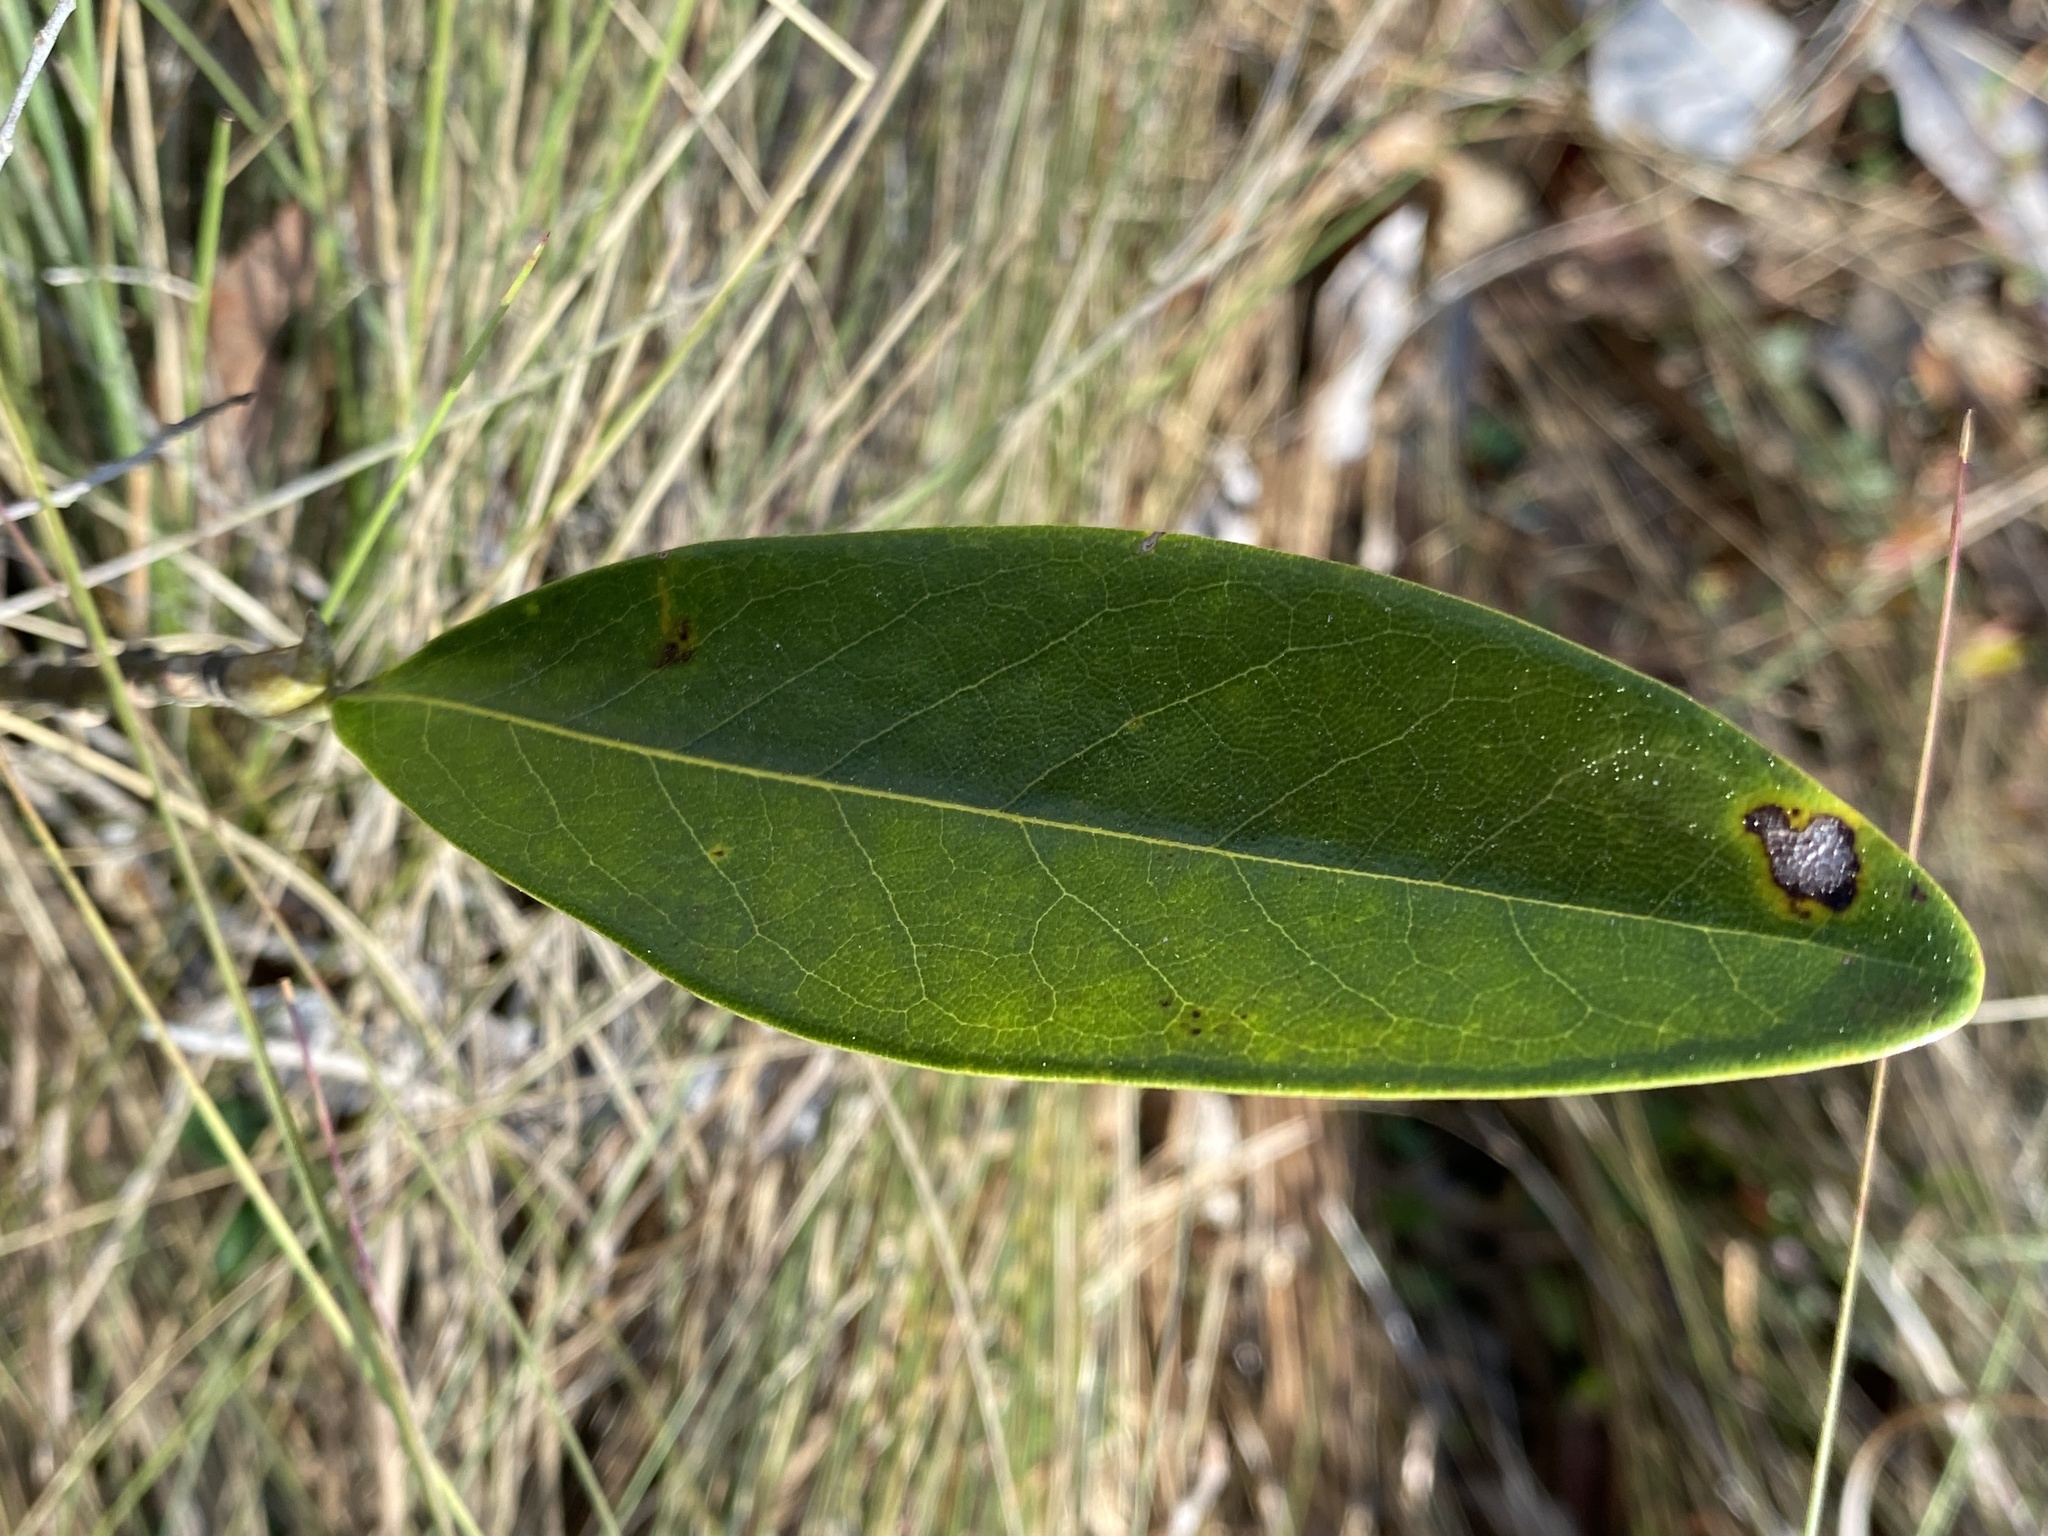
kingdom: Plantae
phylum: Tracheophyta
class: Magnoliopsida
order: Magnoliales
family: Magnoliaceae
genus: Magnolia
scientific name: Magnolia virginiana
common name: Swamp bay
